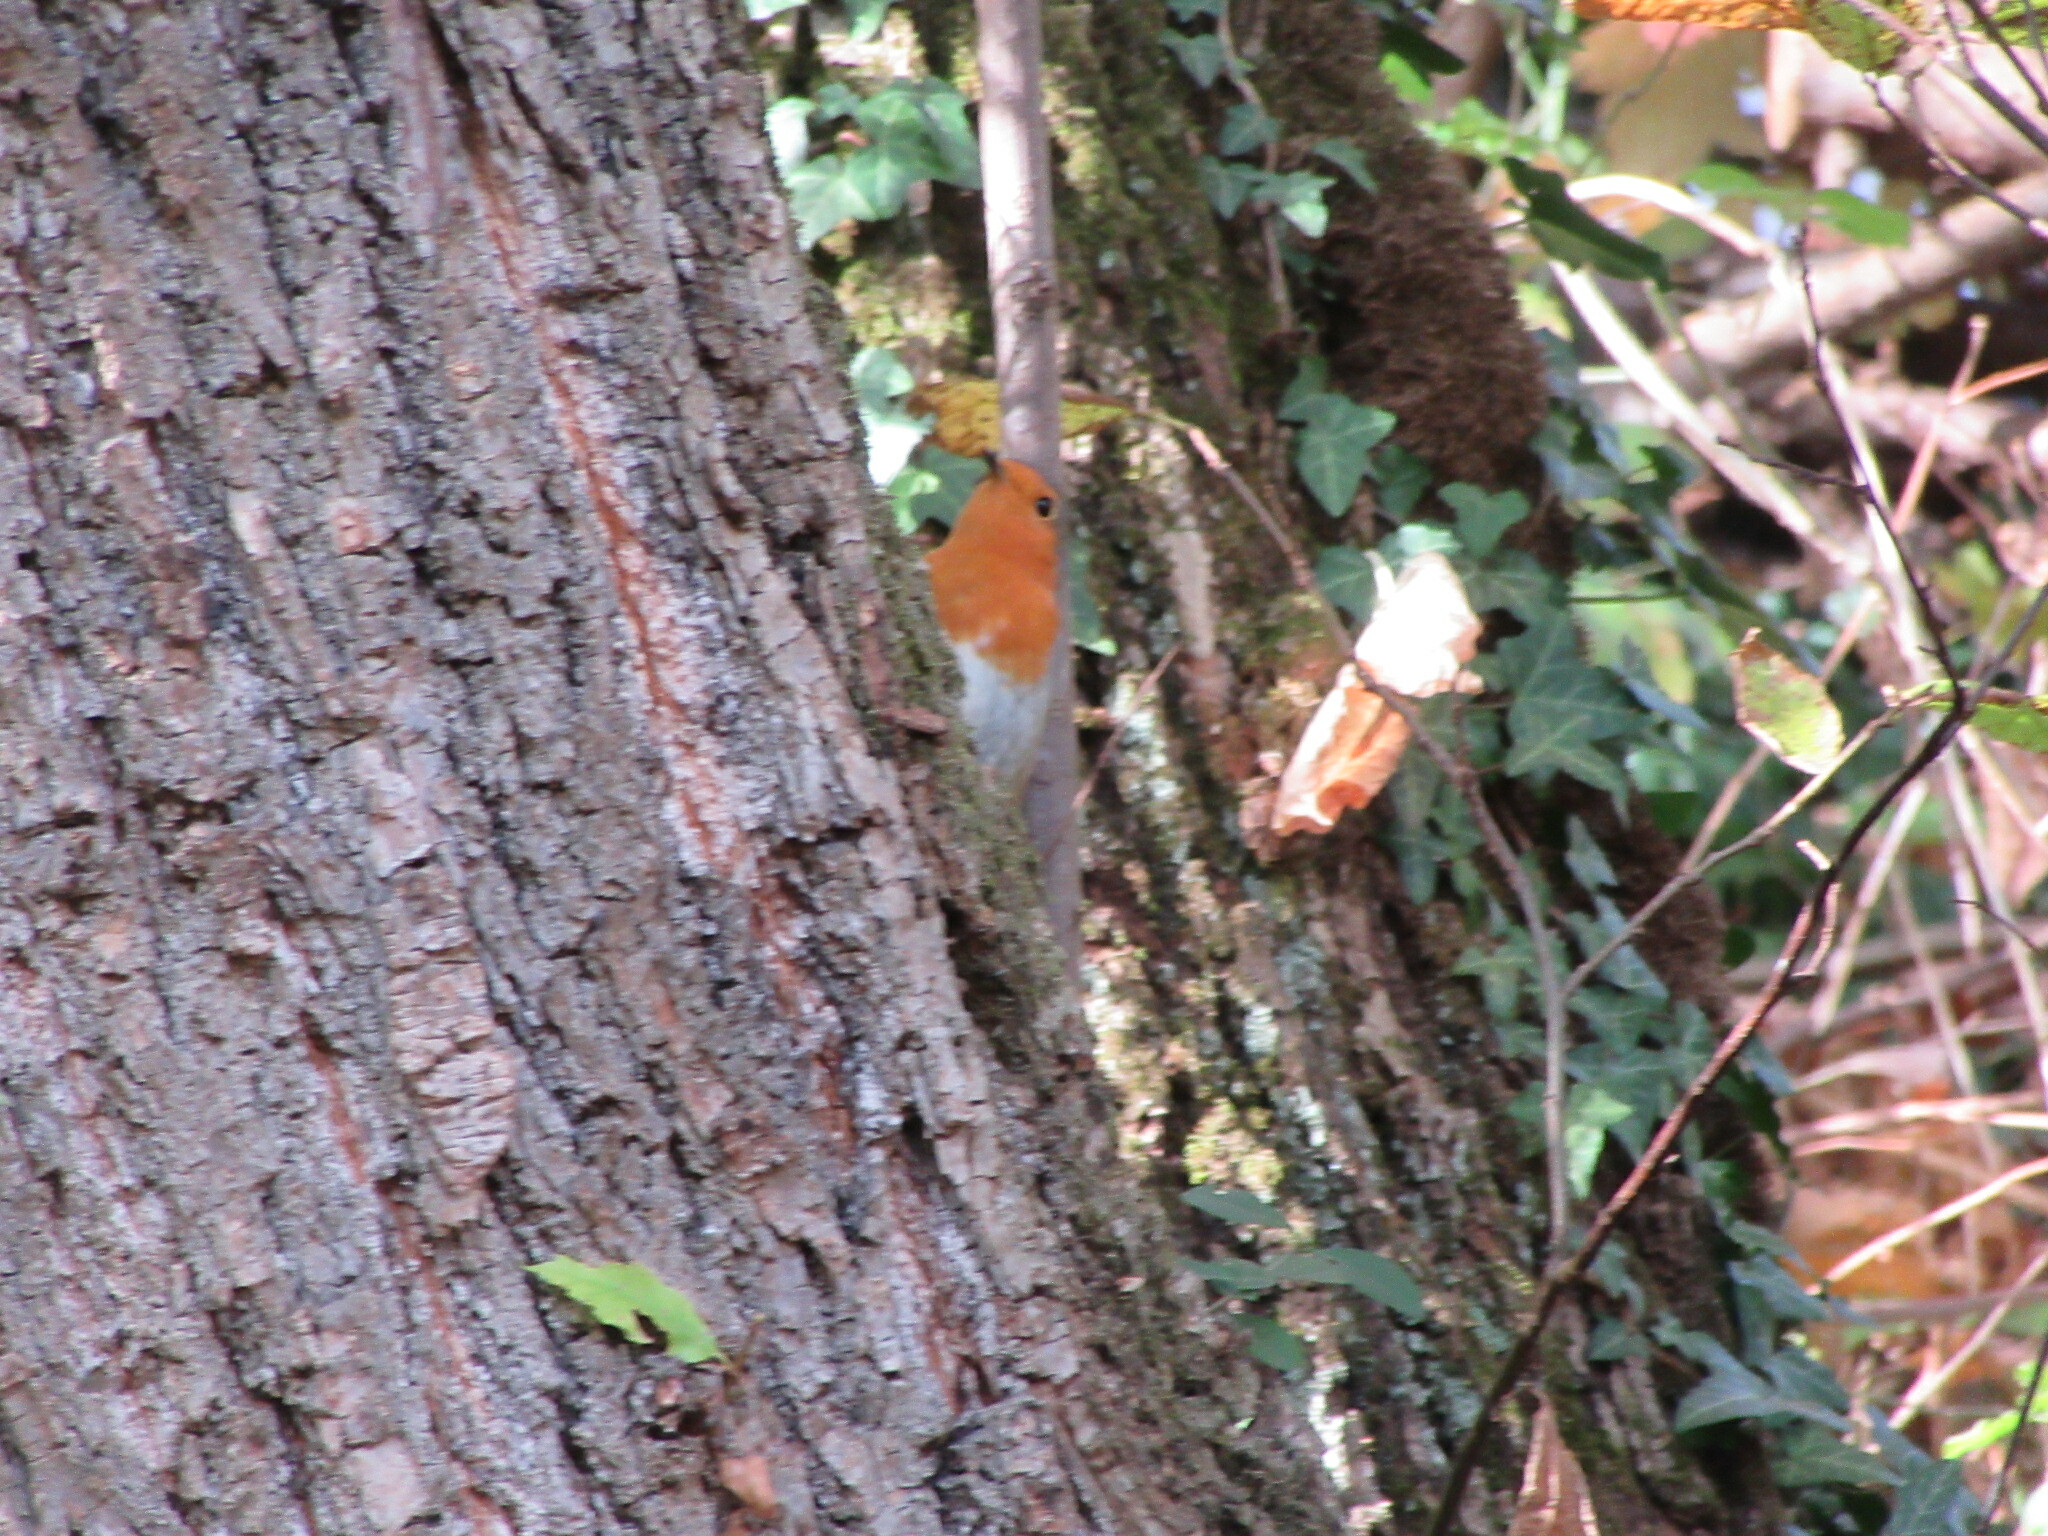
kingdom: Animalia
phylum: Chordata
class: Aves
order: Passeriformes
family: Muscicapidae
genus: Erithacus
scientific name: Erithacus rubecula
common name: European robin
